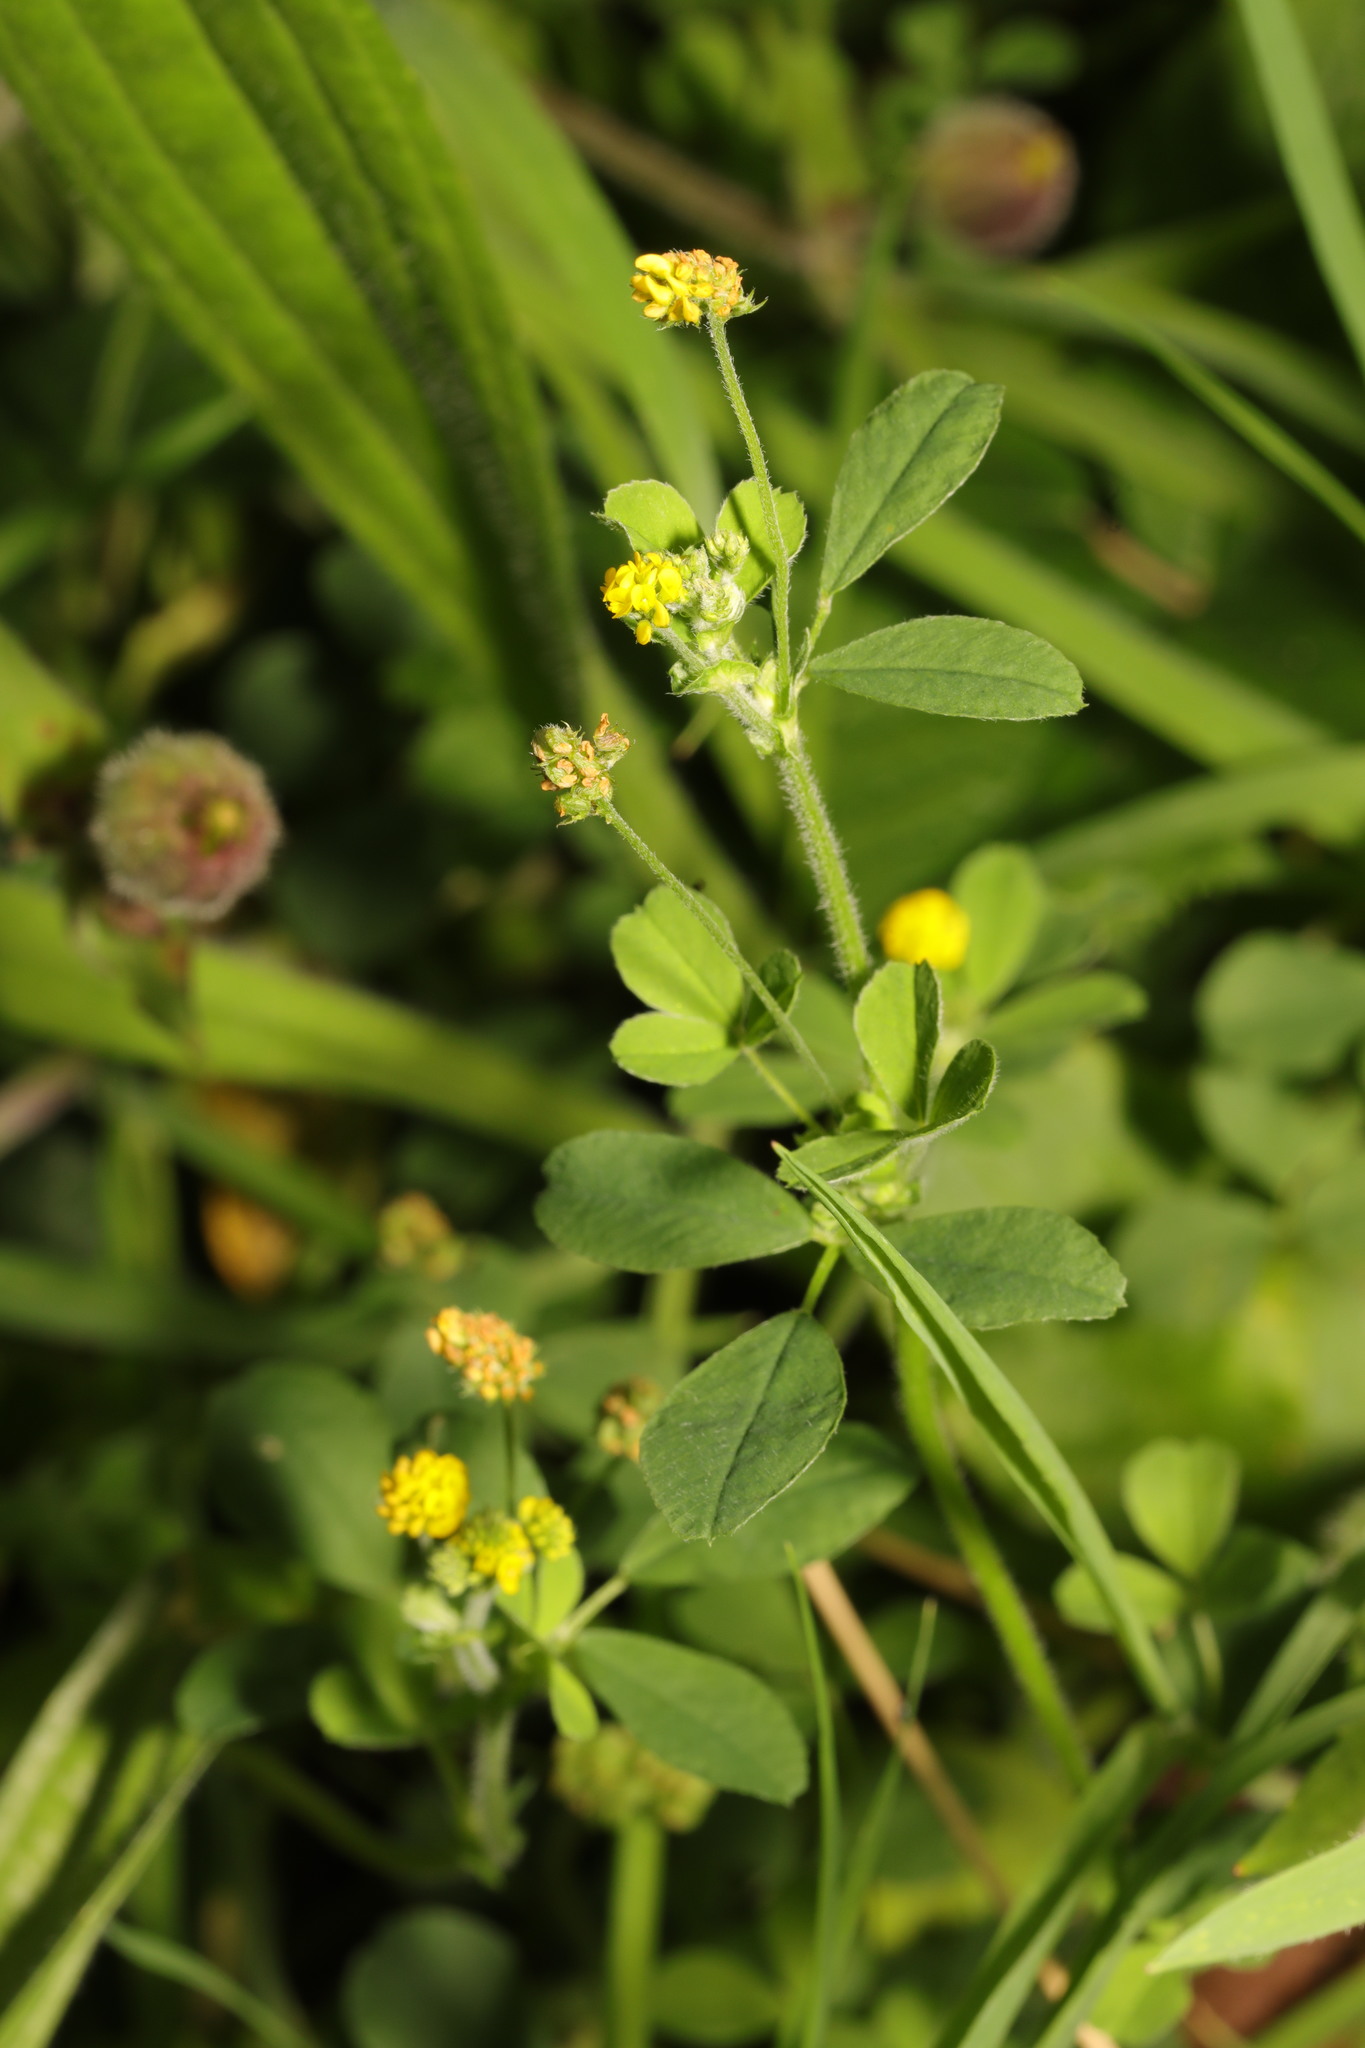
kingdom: Plantae
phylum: Tracheophyta
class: Magnoliopsida
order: Fabales
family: Fabaceae
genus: Medicago
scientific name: Medicago lupulina
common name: Black medick
